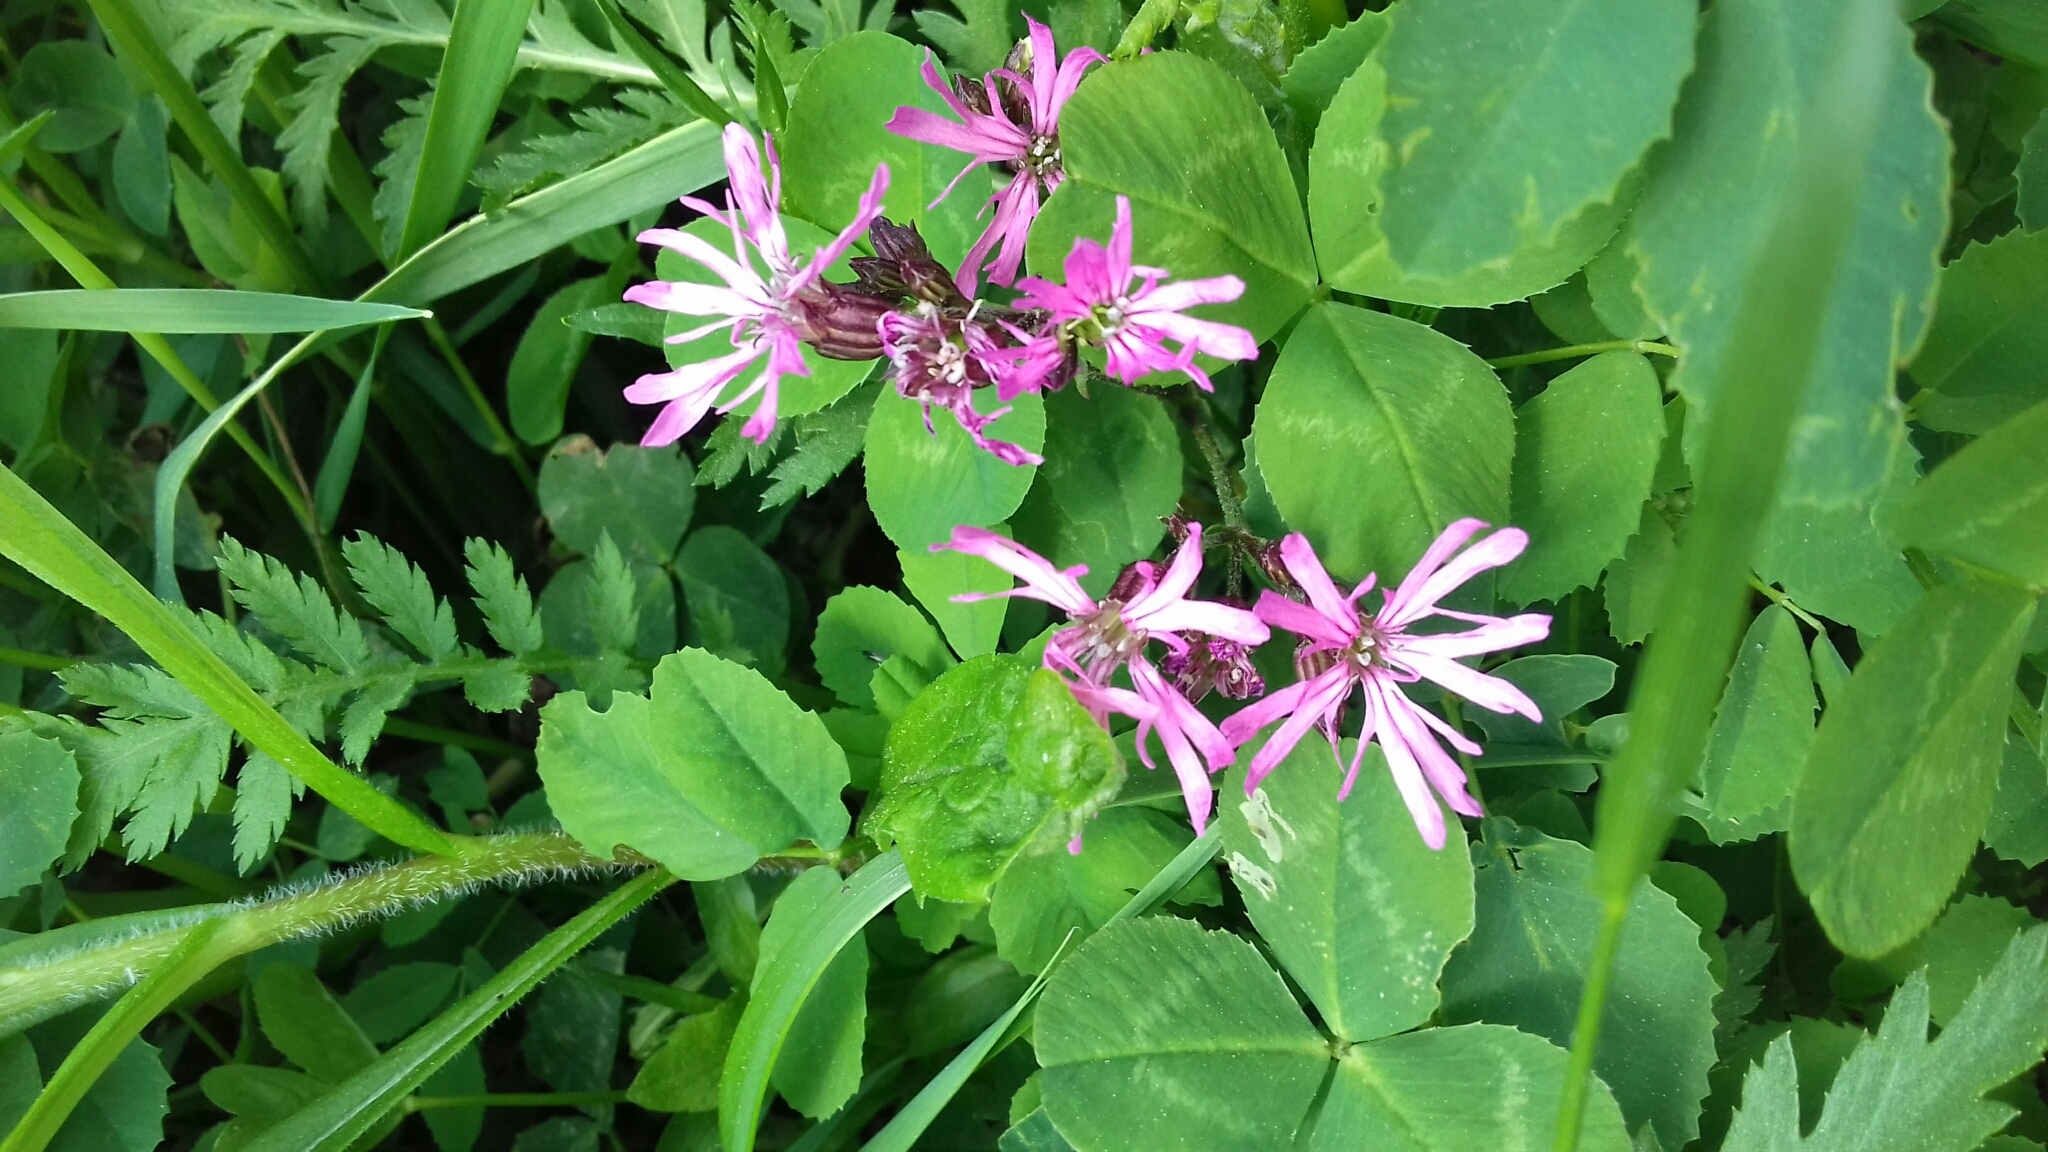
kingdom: Plantae
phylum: Tracheophyta
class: Magnoliopsida
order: Caryophyllales
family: Caryophyllaceae
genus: Silene
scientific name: Silene flos-cuculi
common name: Ragged-robin
